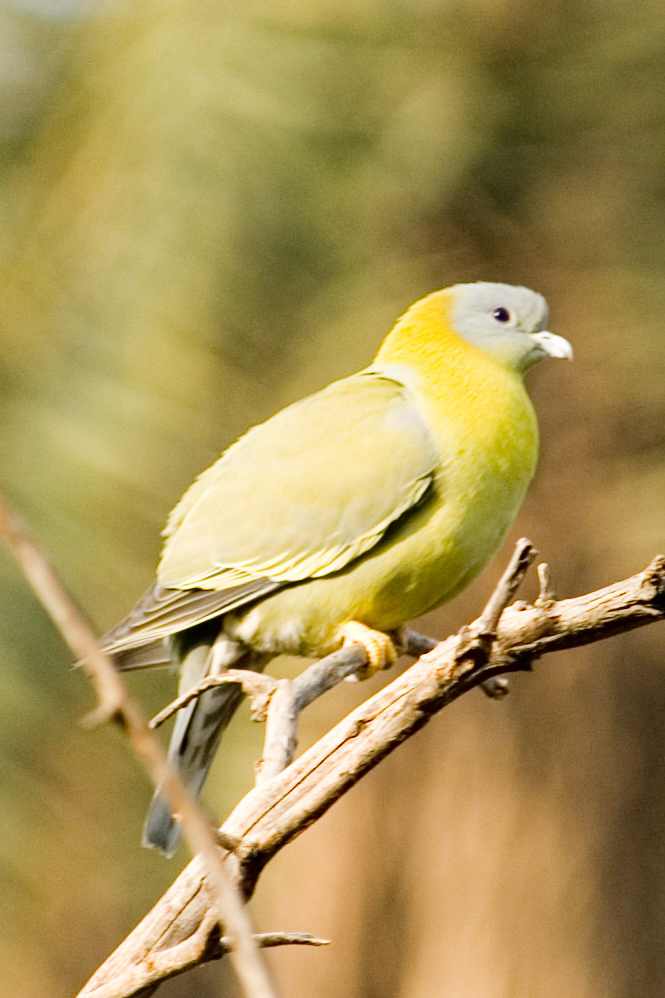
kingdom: Animalia
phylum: Chordata
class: Aves
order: Columbiformes
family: Columbidae
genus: Treron
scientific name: Treron phoenicopterus
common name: Yellow-footed green pigeon
